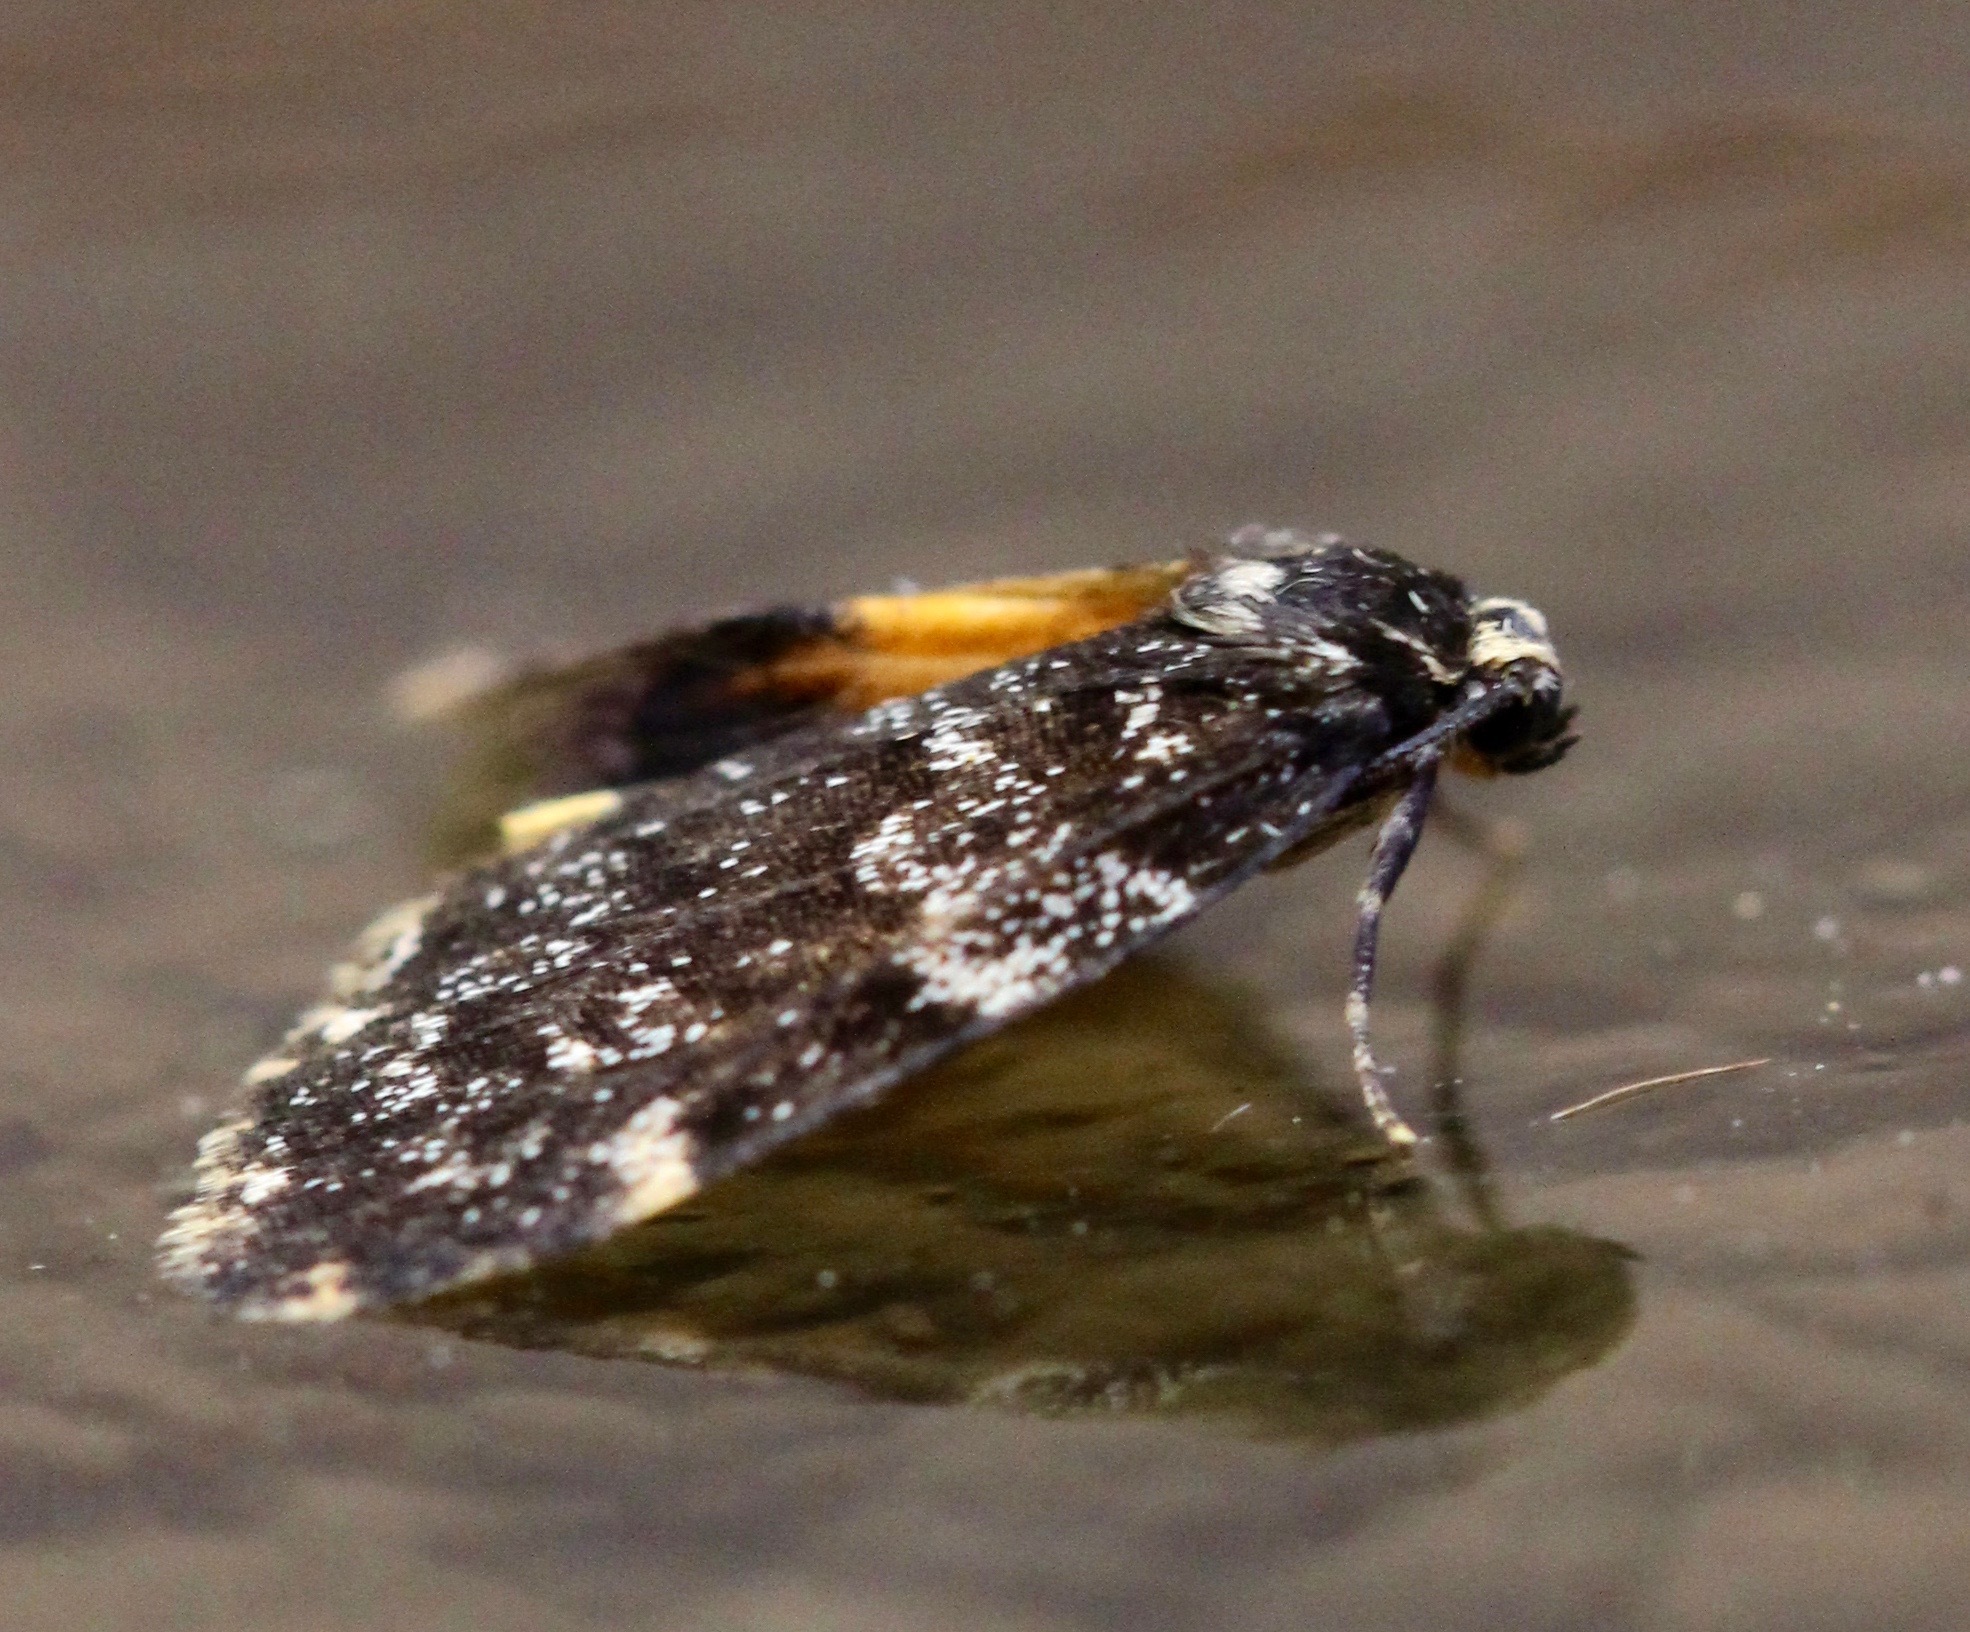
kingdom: Animalia
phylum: Arthropoda
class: Insecta
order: Lepidoptera
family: Erebidae
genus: Halone
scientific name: Halone sinuata
